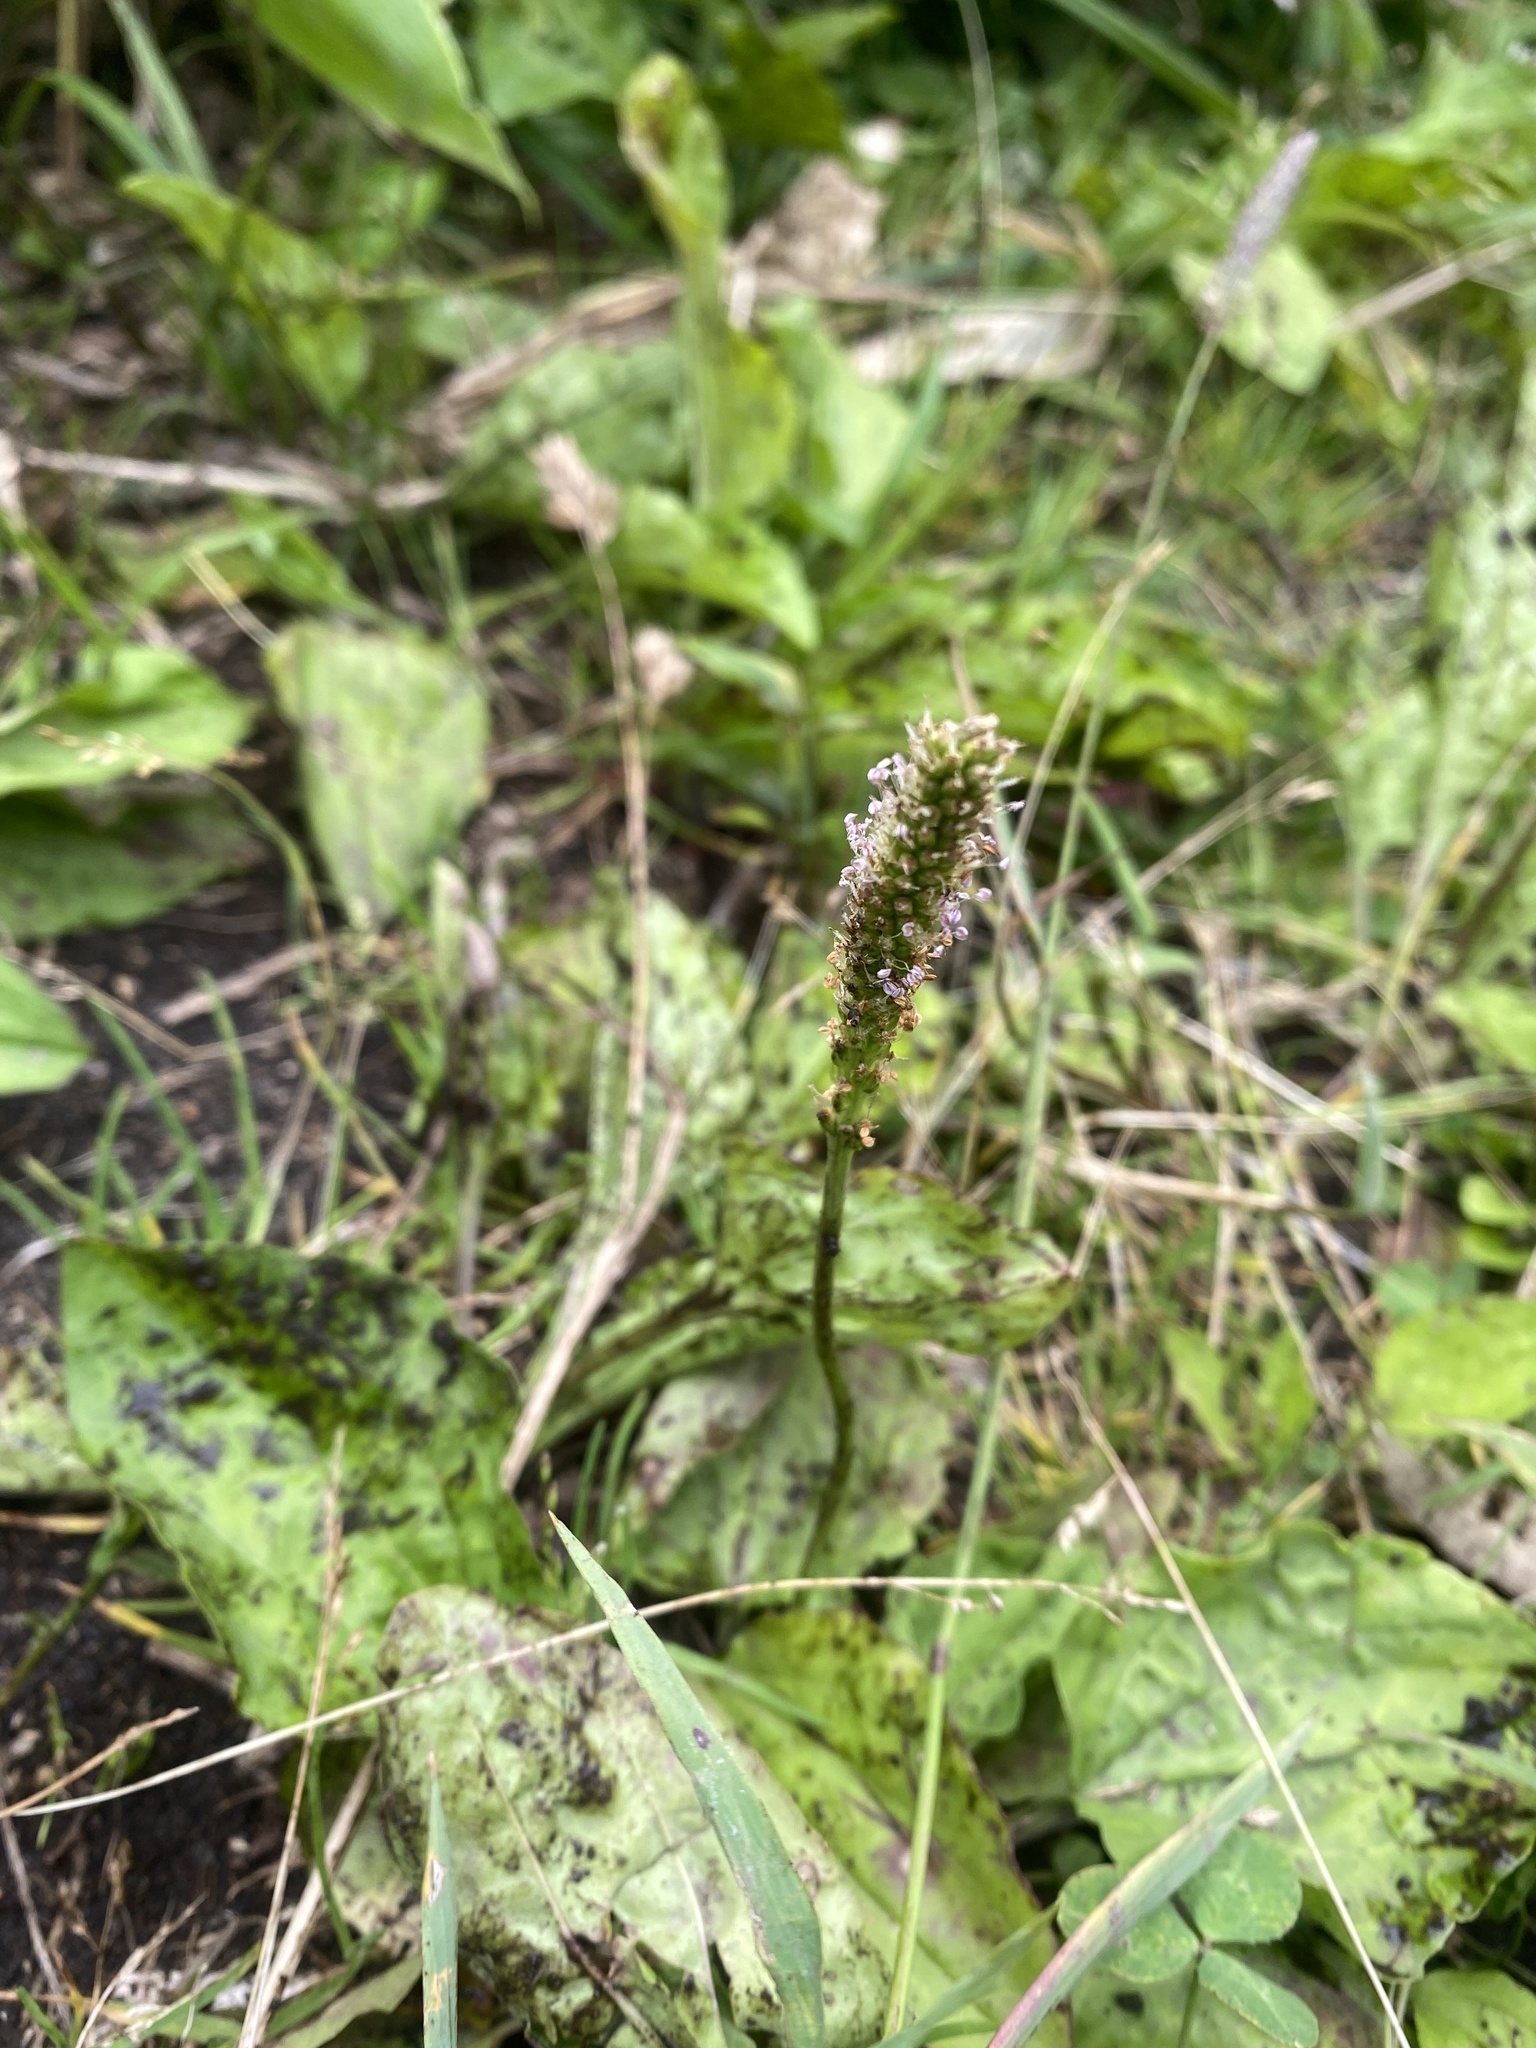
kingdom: Plantae
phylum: Tracheophyta
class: Magnoliopsida
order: Lamiales
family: Plantaginaceae
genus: Plantago
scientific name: Plantago major
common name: Common plantain
